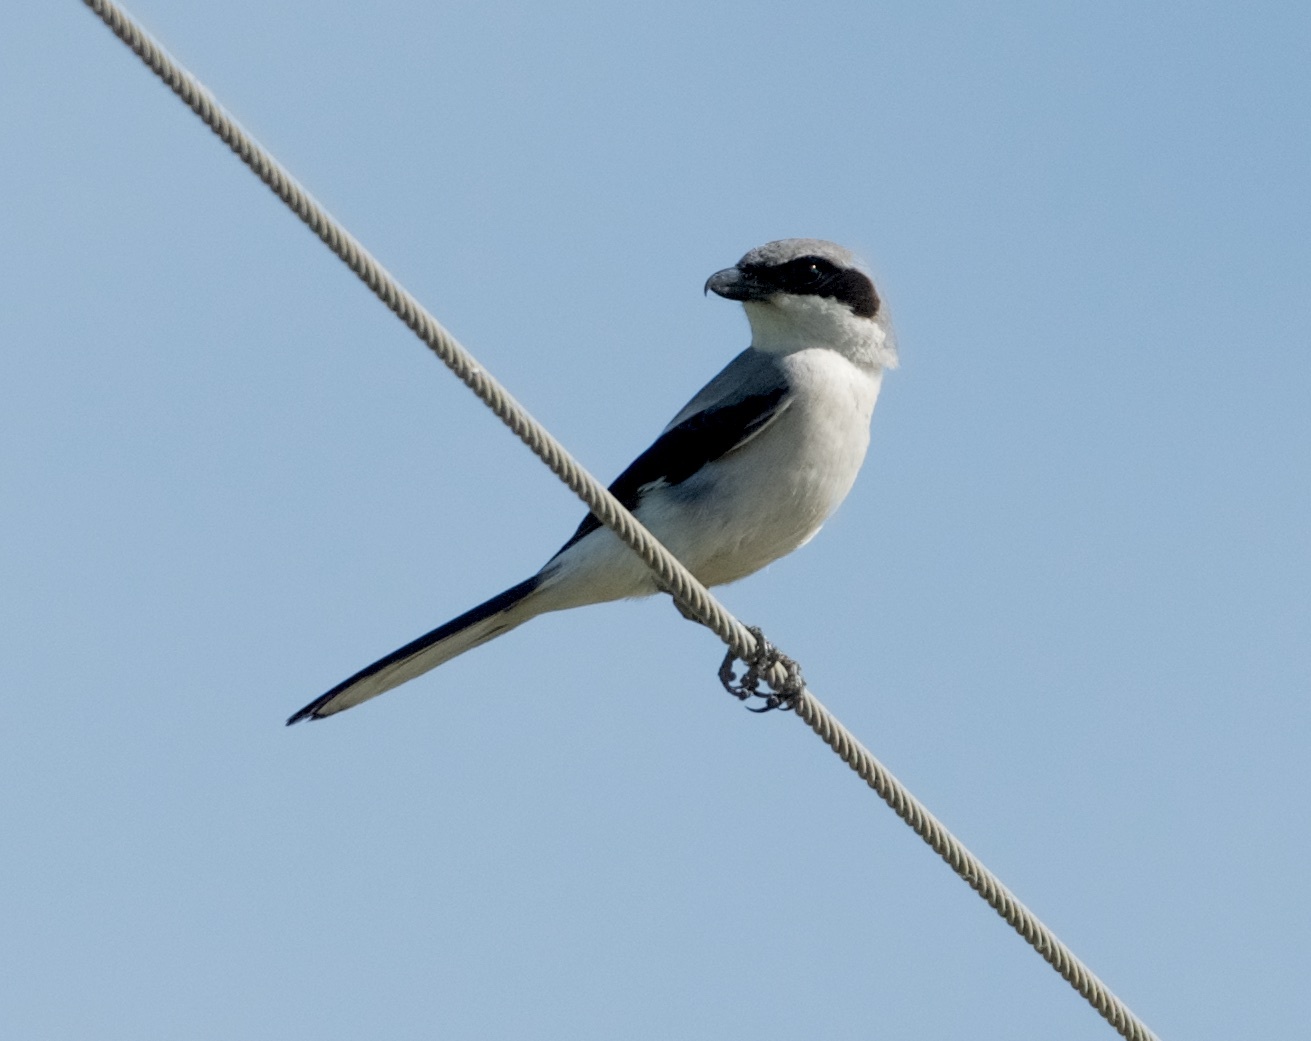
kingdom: Animalia
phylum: Chordata
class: Aves
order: Passeriformes
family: Laniidae
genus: Lanius
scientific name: Lanius ludovicianus
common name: Loggerhead shrike
